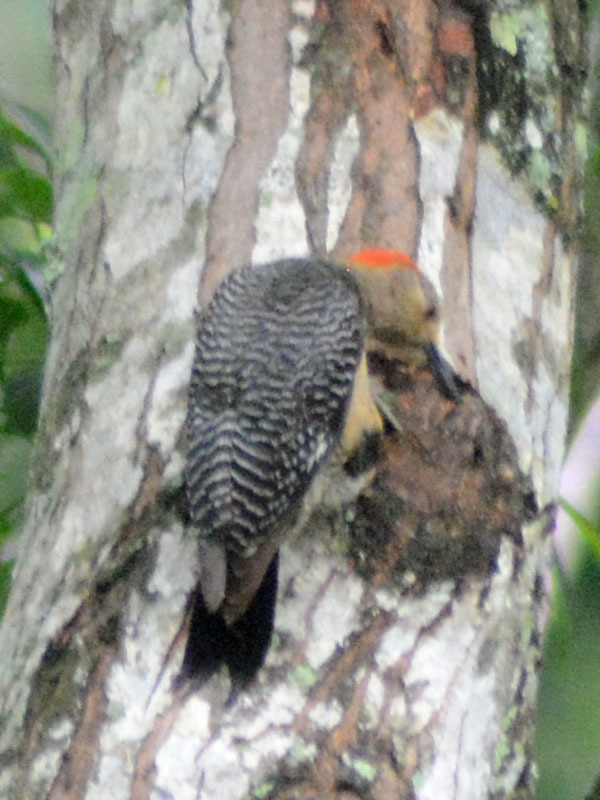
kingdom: Animalia
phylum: Chordata
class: Aves
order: Piciformes
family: Picidae
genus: Melanerpes
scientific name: Melanerpes aurifrons
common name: Golden-fronted woodpecker
